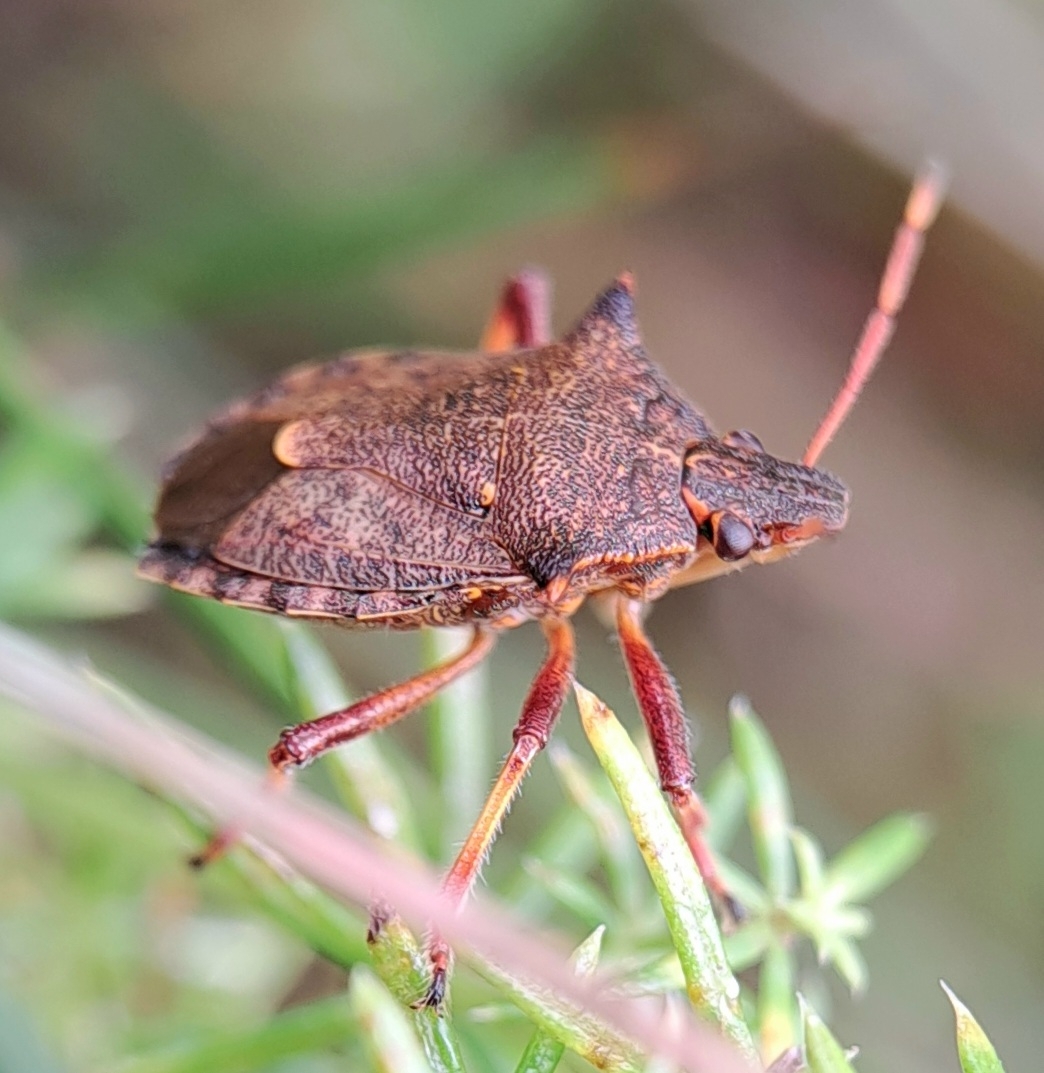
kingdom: Animalia
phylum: Arthropoda
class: Insecta
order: Hemiptera
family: Pentatomidae
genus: Picromerus
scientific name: Picromerus bidens
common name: Spiked shieldbug
